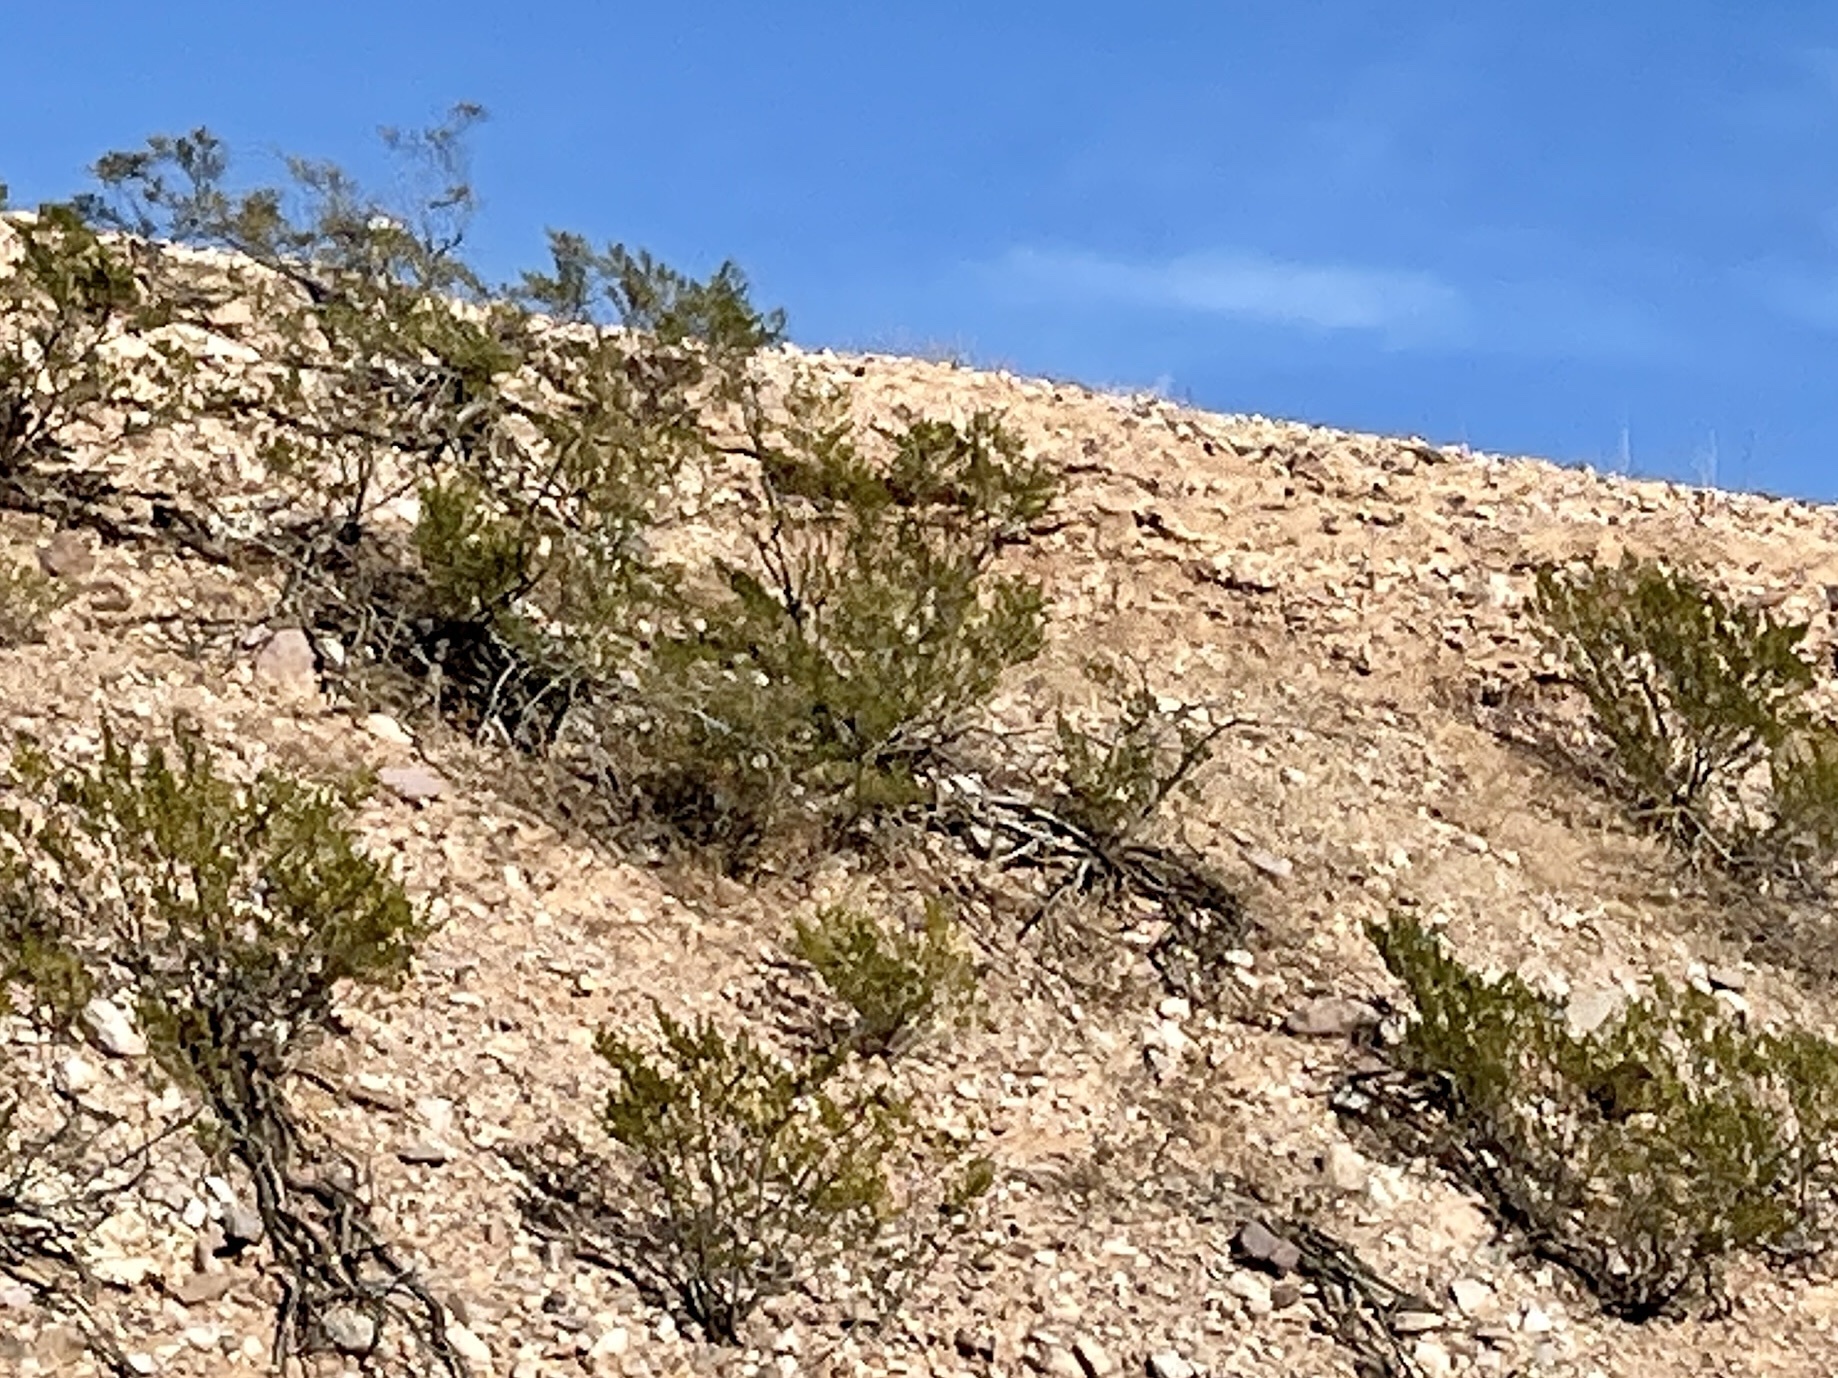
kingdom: Plantae
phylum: Tracheophyta
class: Magnoliopsida
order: Zygophyllales
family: Zygophyllaceae
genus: Larrea
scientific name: Larrea tridentata
